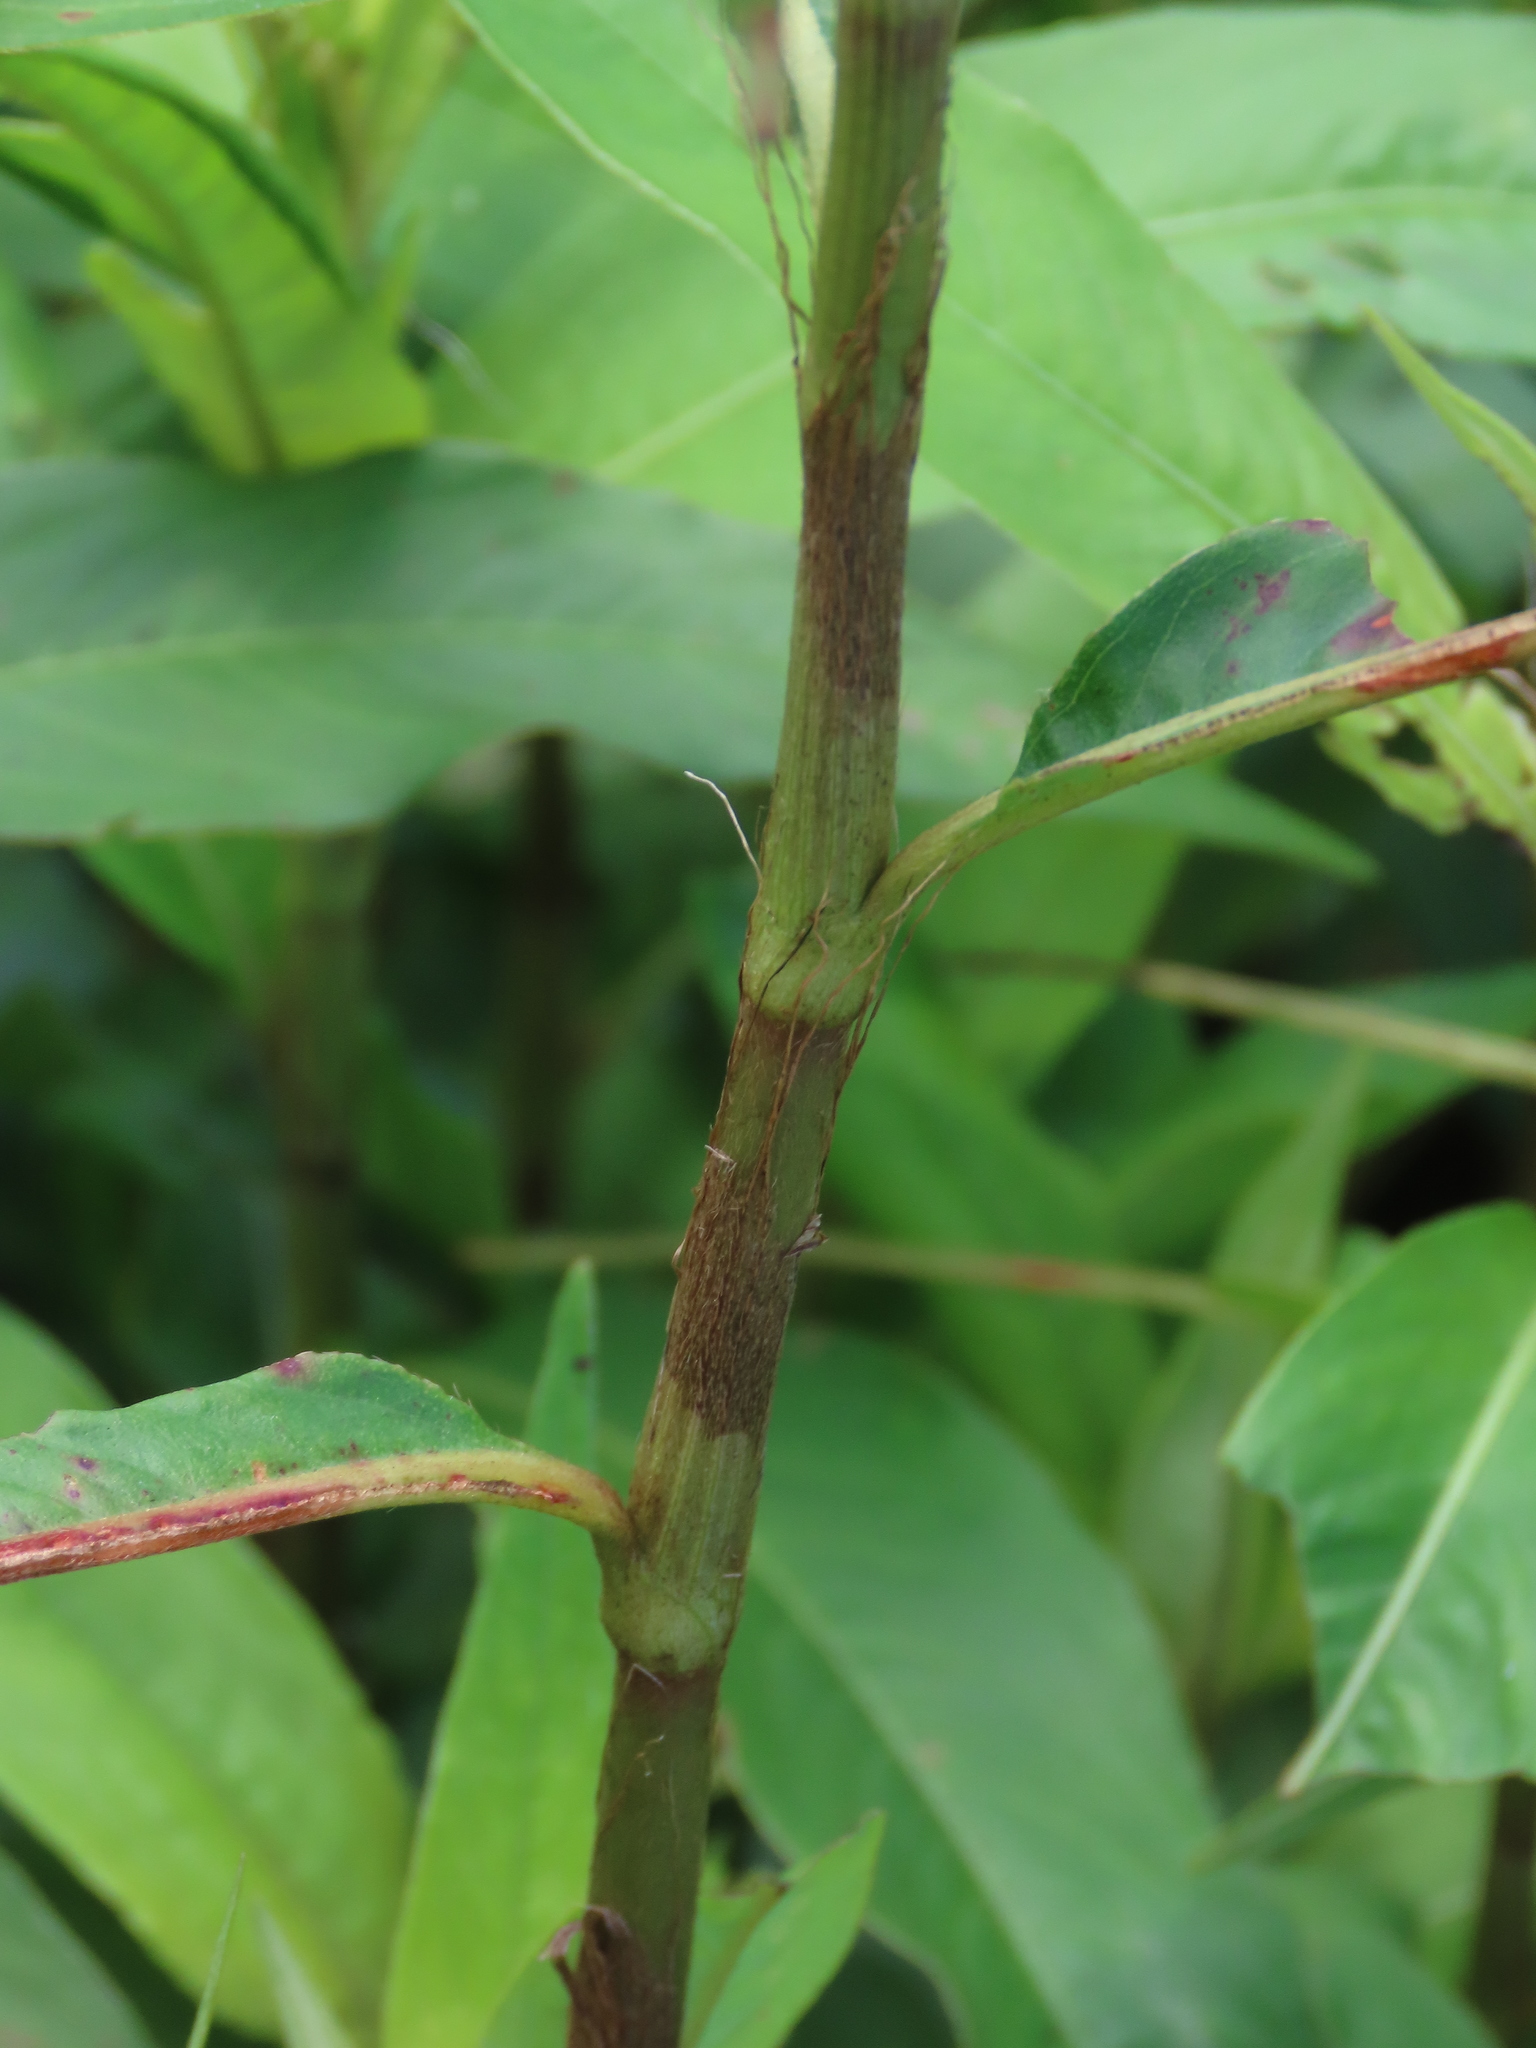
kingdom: Plantae
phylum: Tracheophyta
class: Magnoliopsida
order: Caryophyllales
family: Polygonaceae
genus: Persicaria
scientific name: Persicaria barbata
